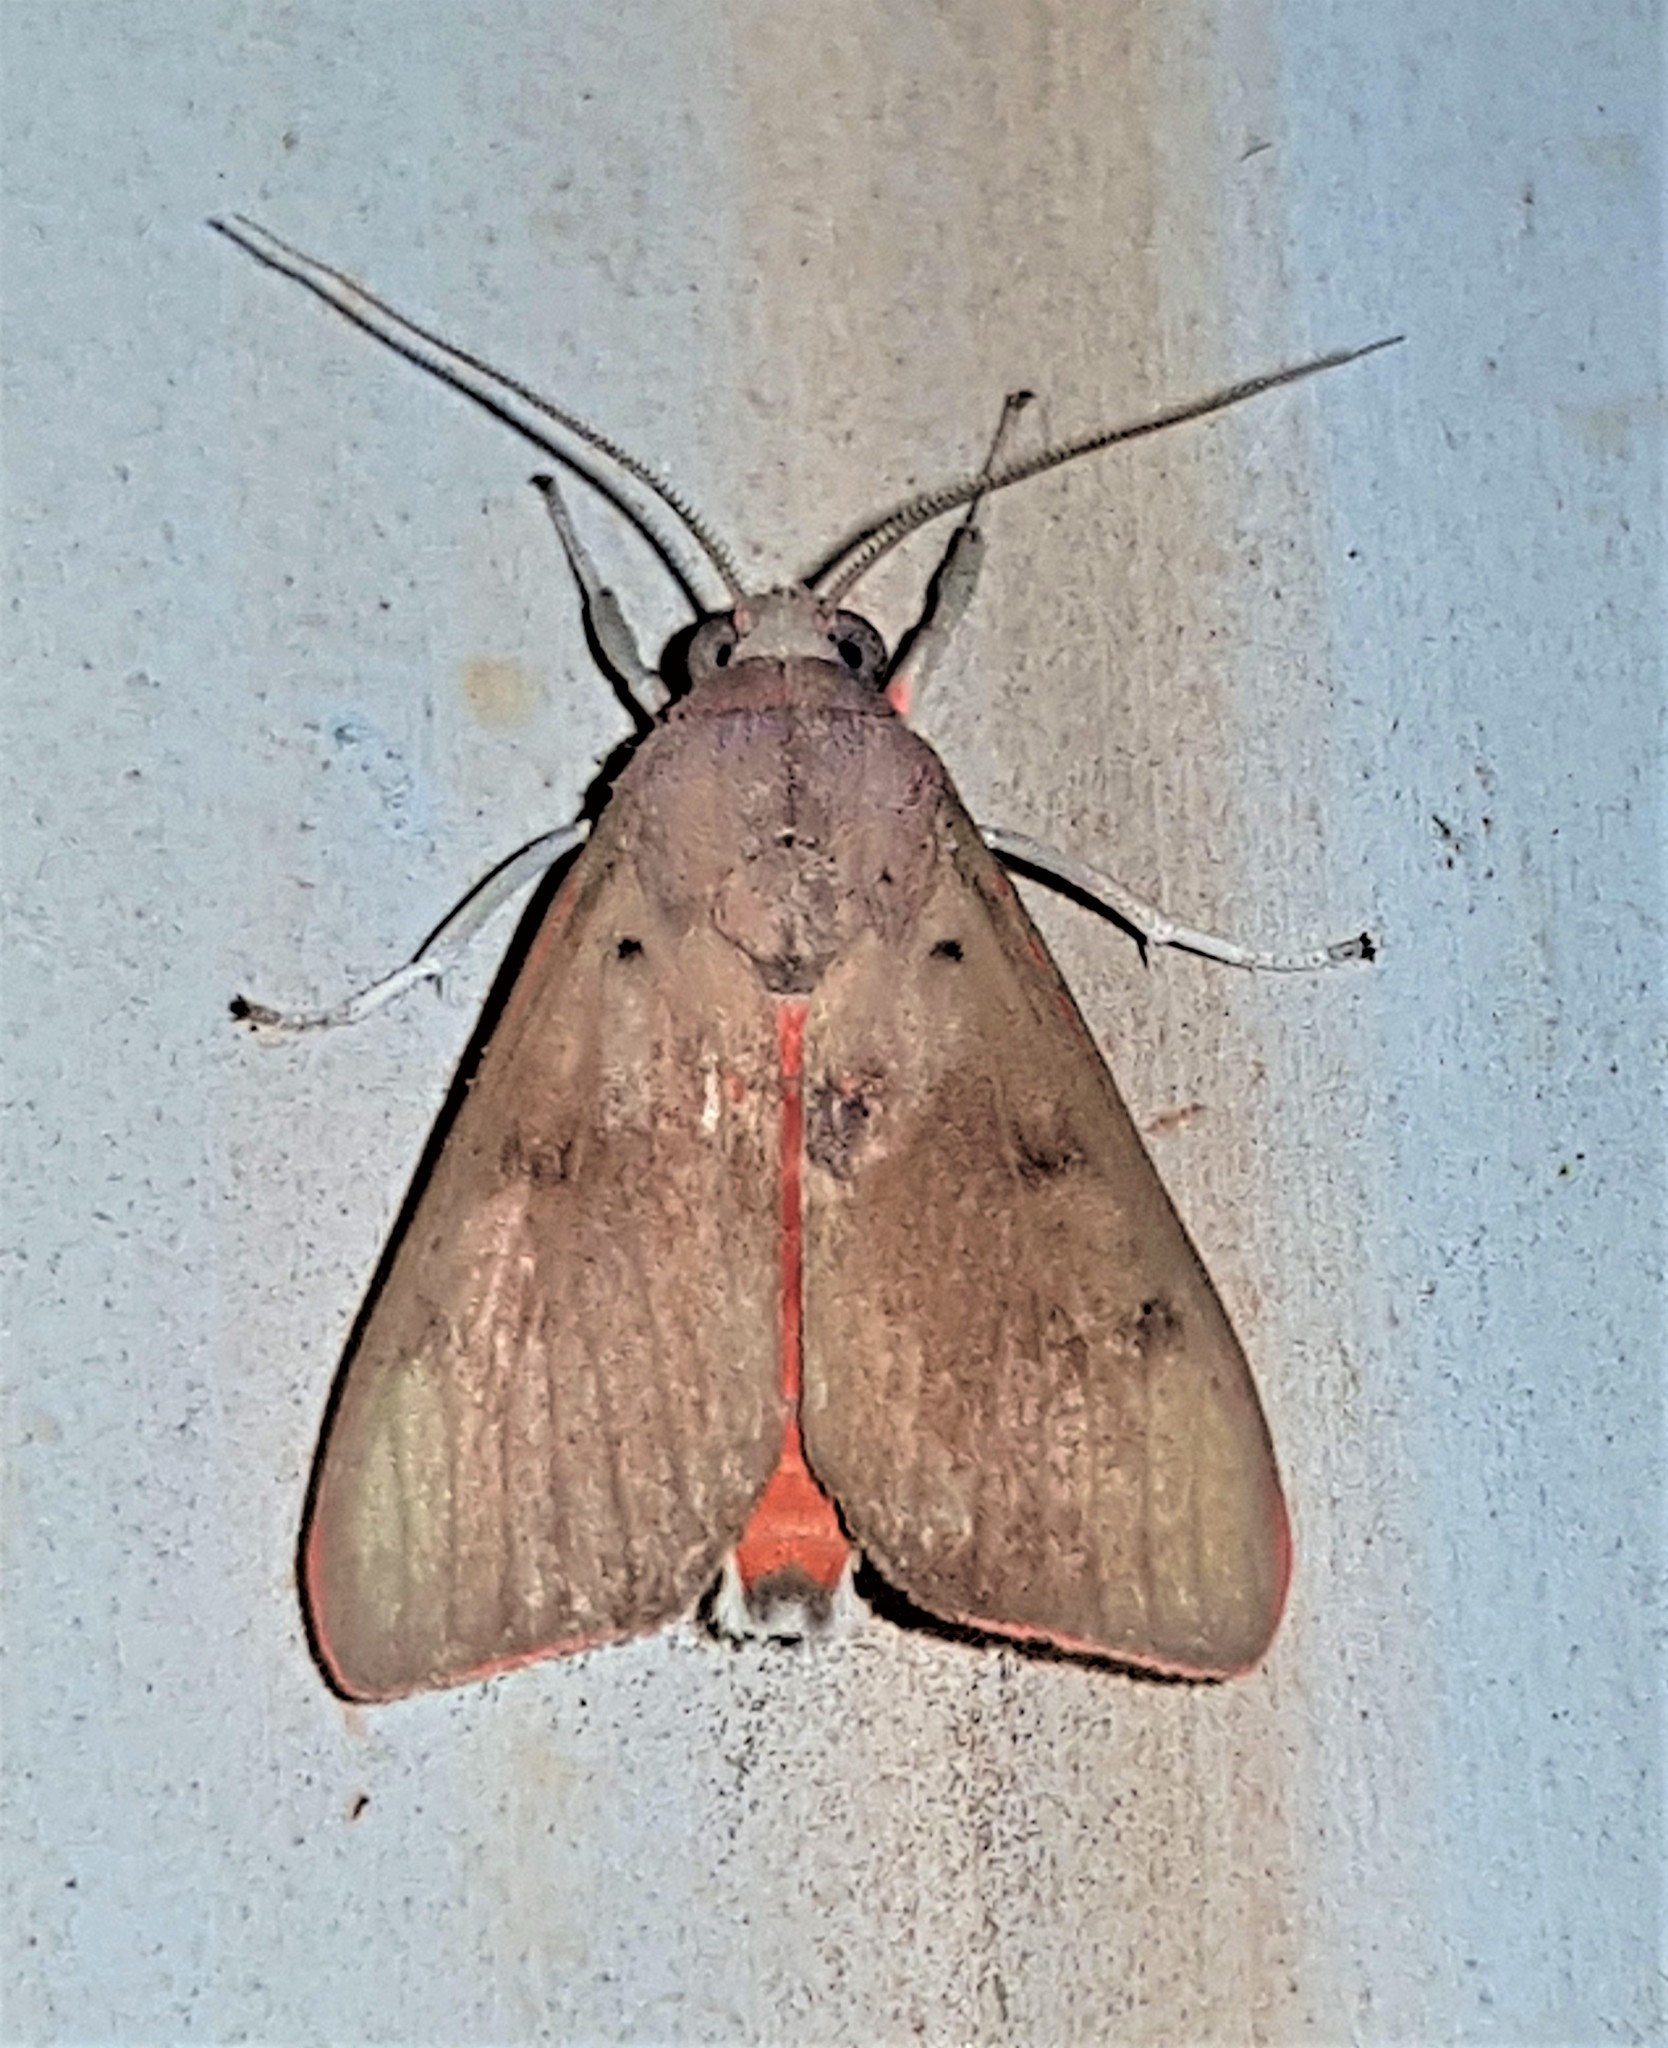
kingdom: Animalia
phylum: Arthropoda
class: Insecta
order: Lepidoptera
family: Erebidae
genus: Melese
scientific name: Melese incertus
